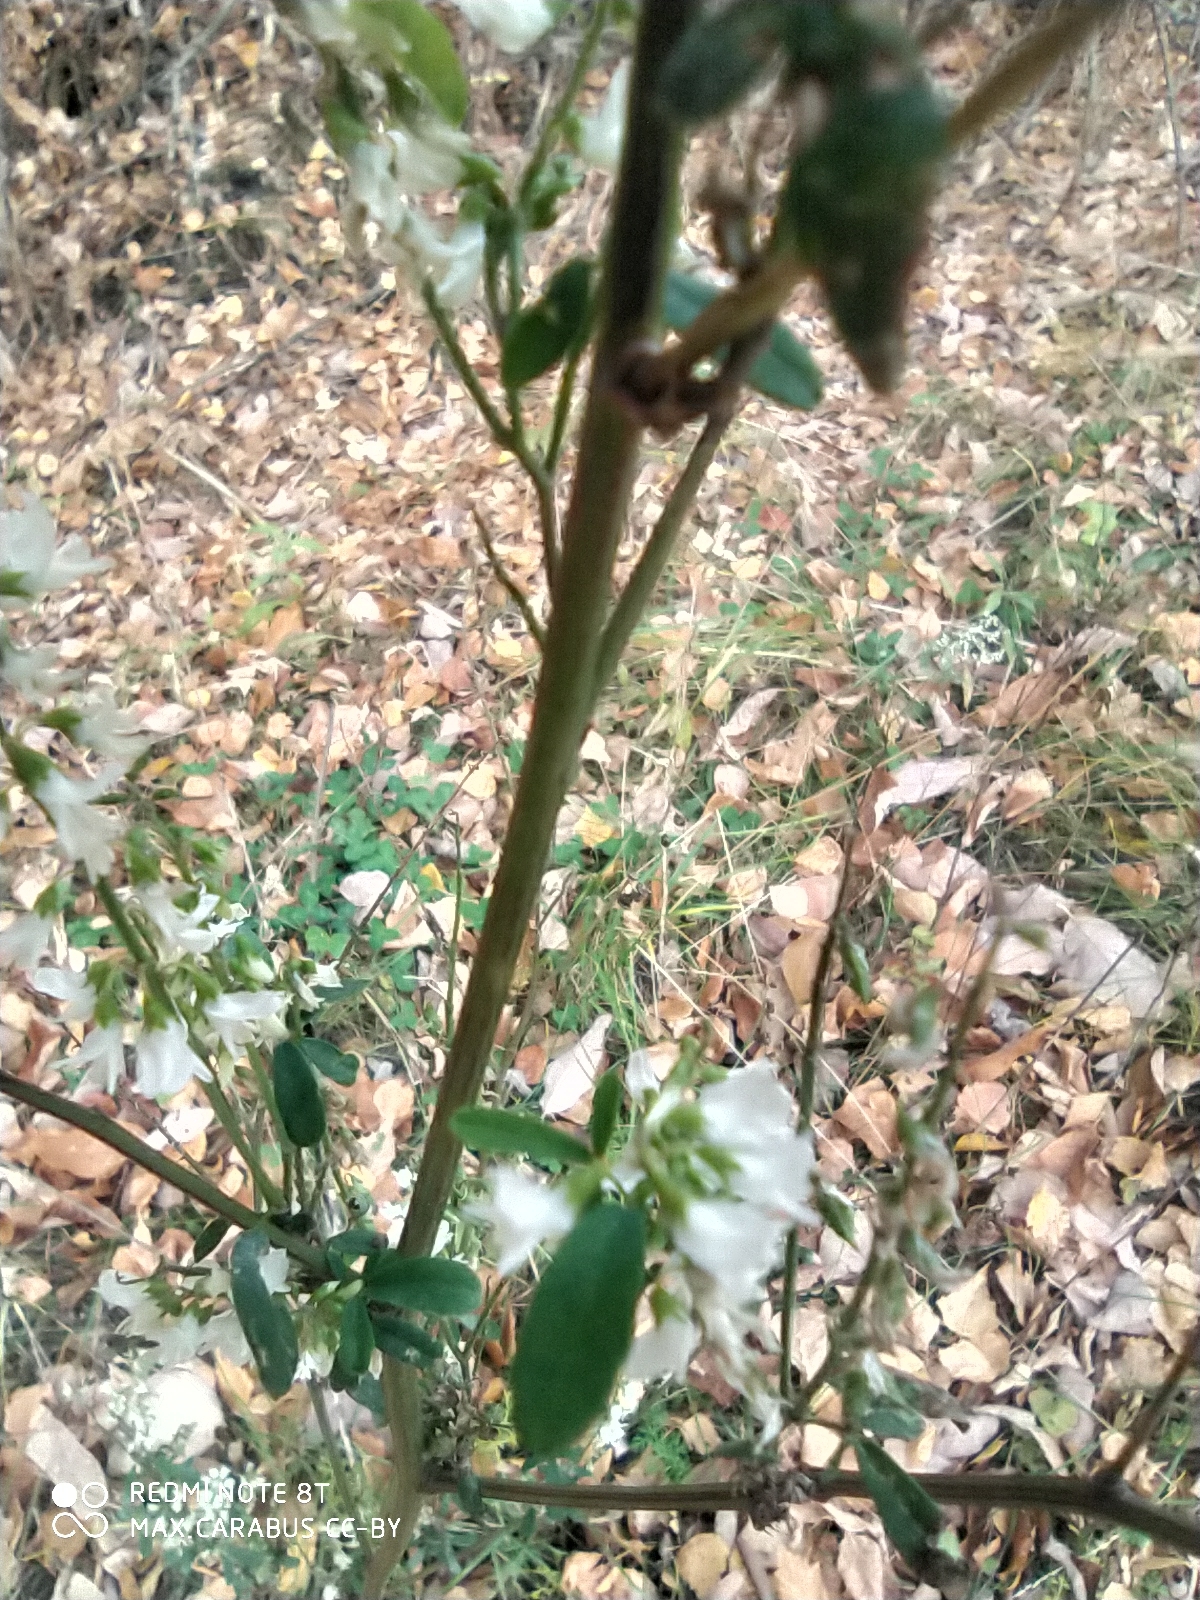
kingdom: Plantae
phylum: Tracheophyta
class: Magnoliopsida
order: Fabales
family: Fabaceae
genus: Melilotus
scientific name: Melilotus albus
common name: White melilot
